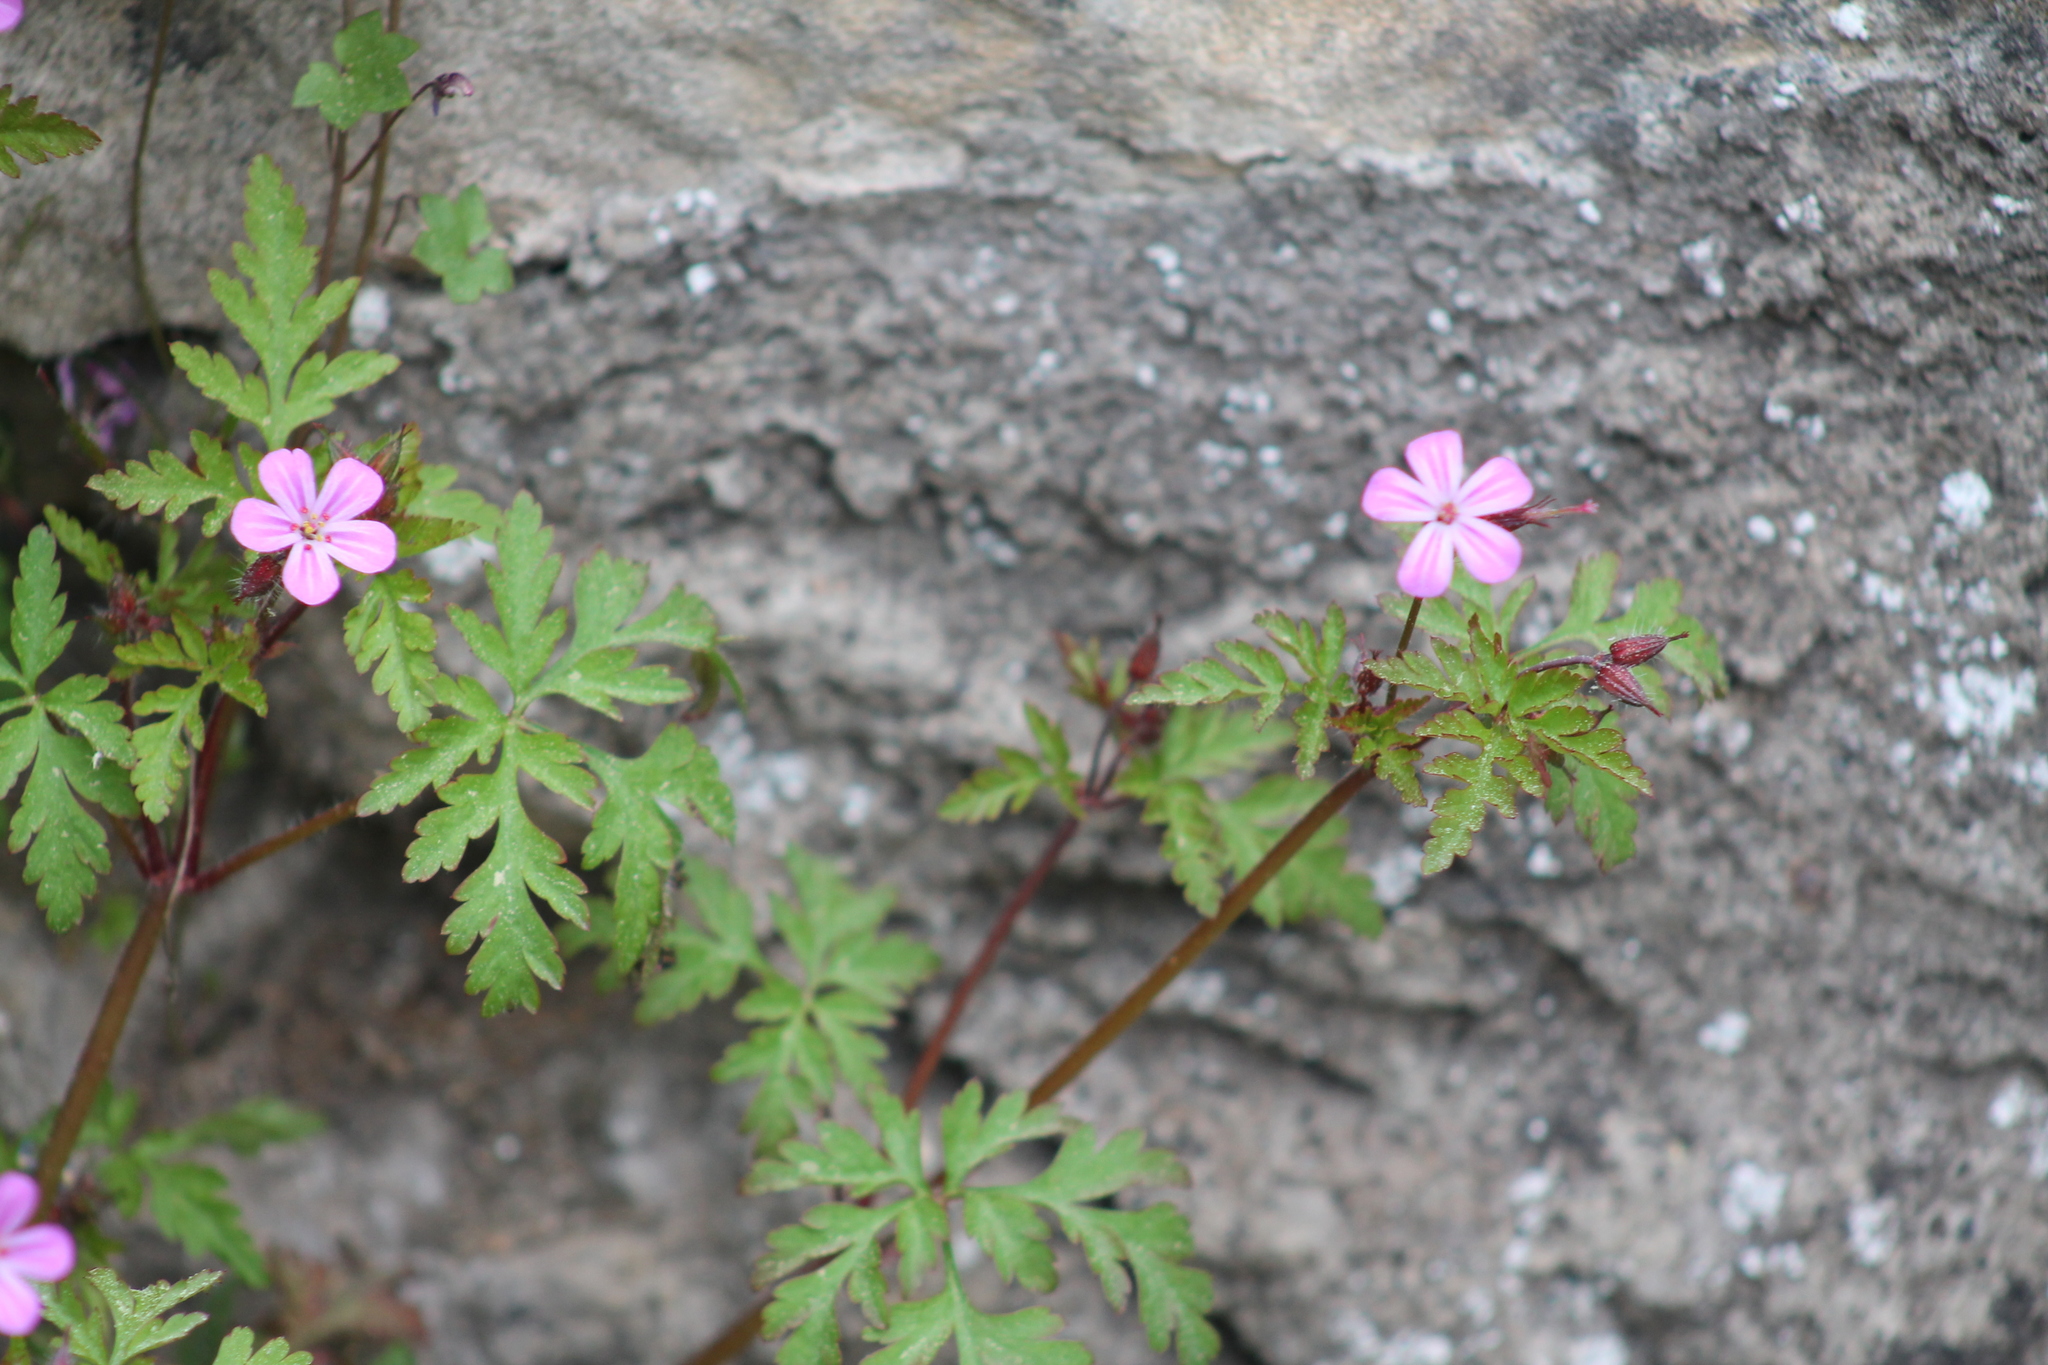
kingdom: Plantae
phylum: Tracheophyta
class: Magnoliopsida
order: Geraniales
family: Geraniaceae
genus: Geranium
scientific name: Geranium robertianum
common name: Herb-robert
